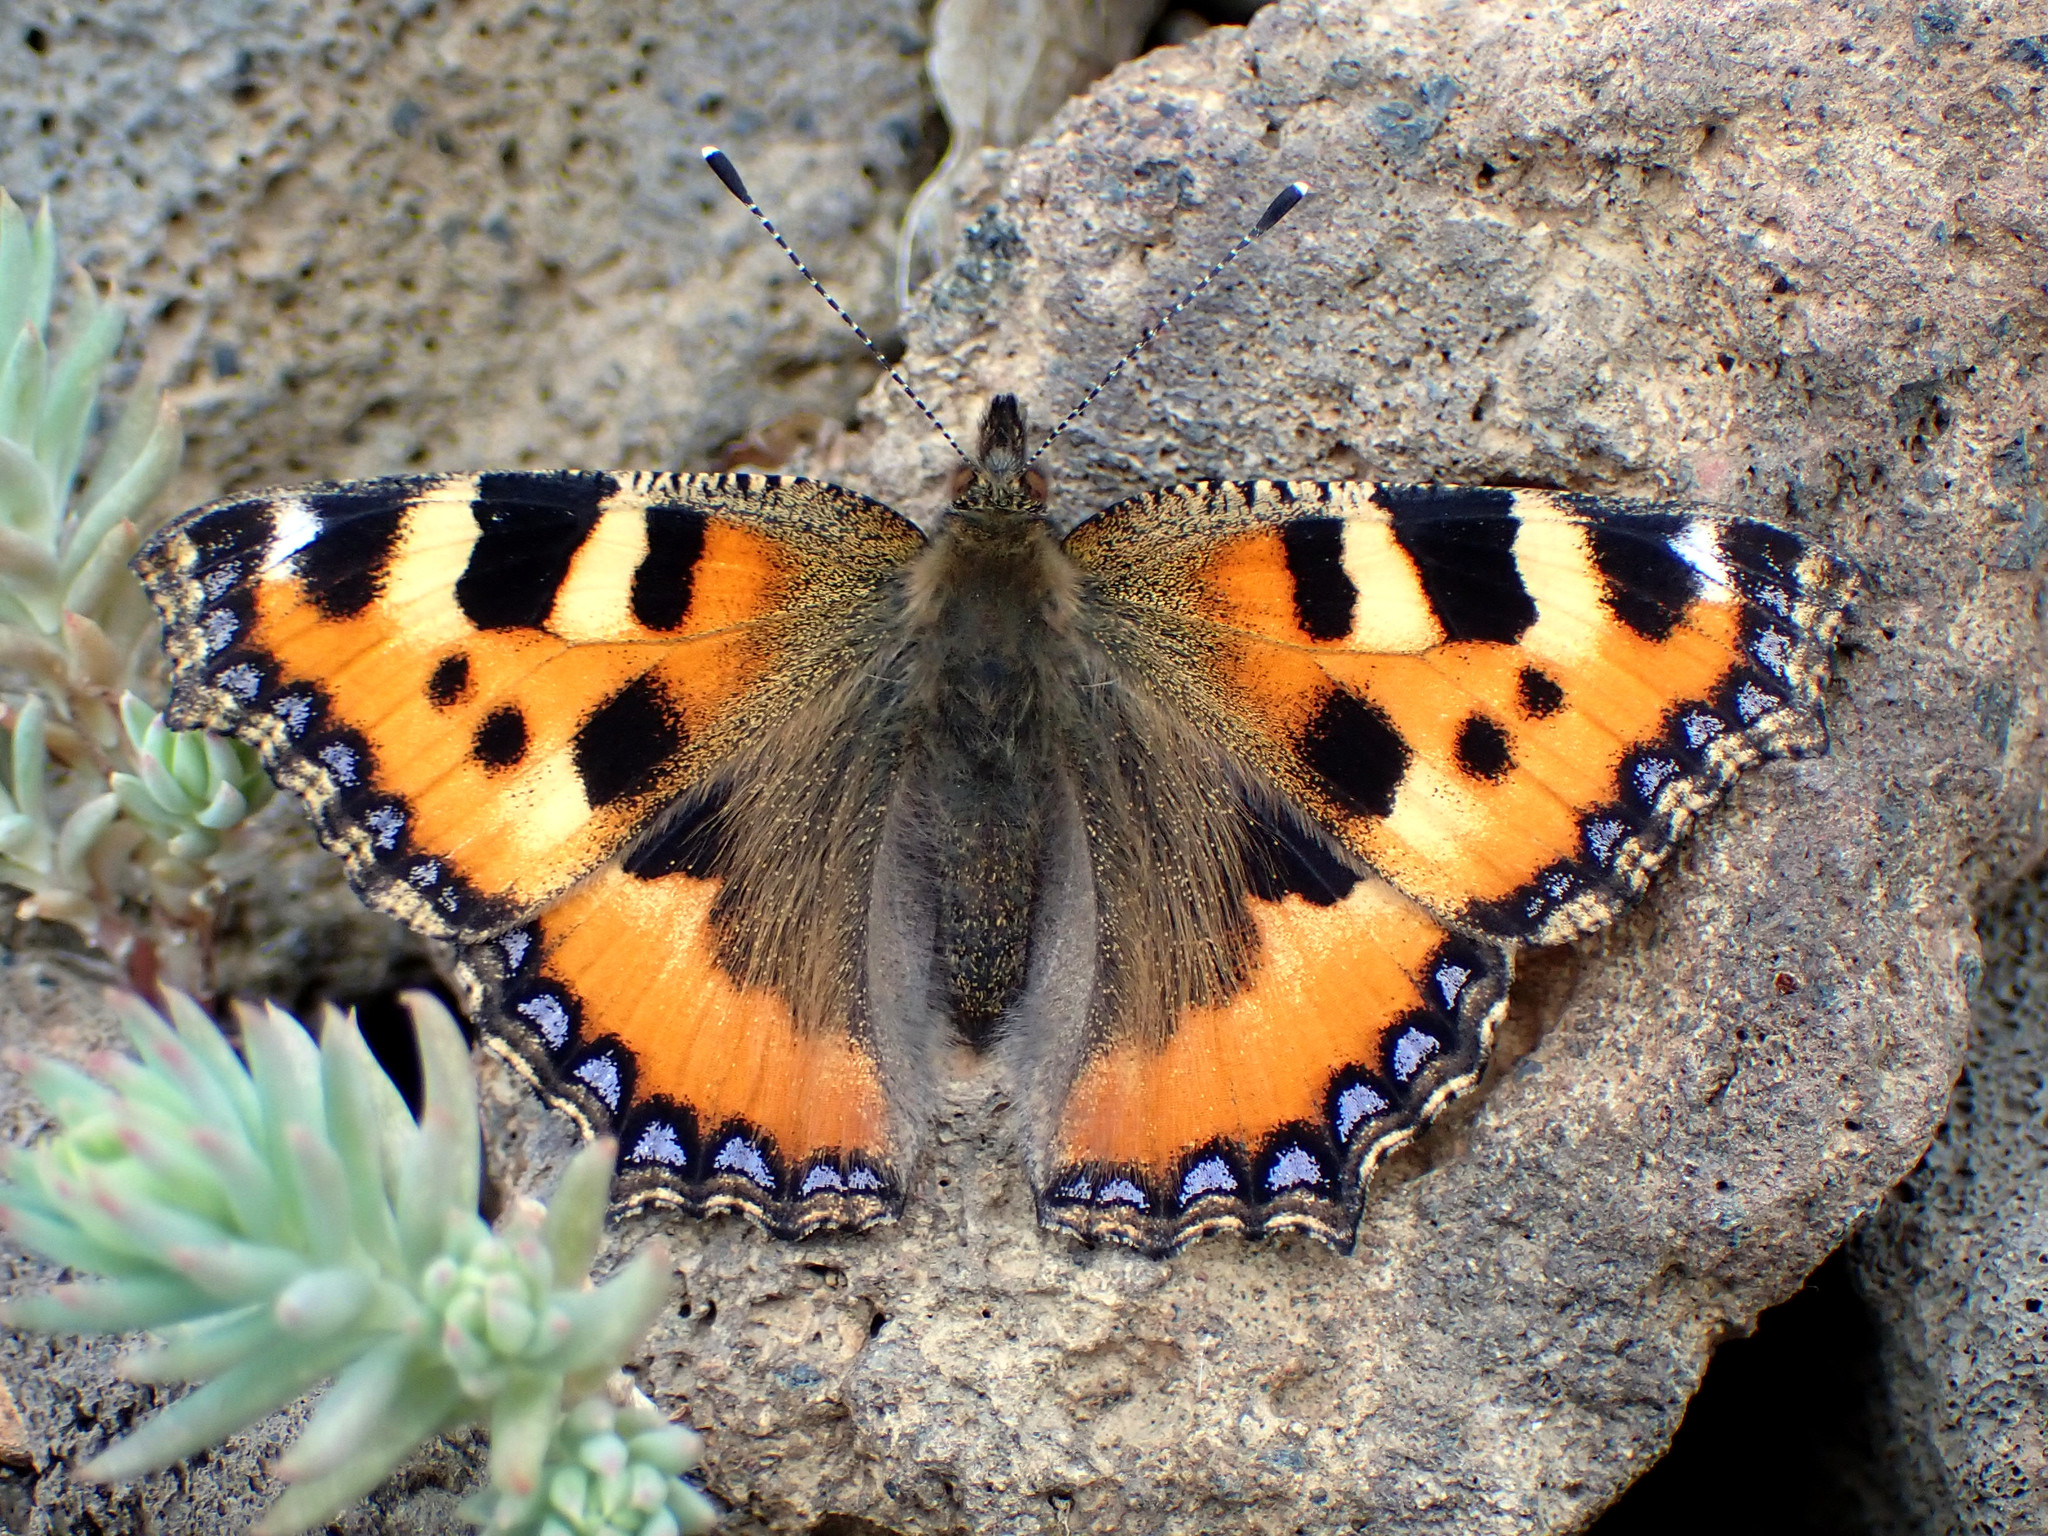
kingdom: Animalia
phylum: Arthropoda
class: Insecta
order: Lepidoptera
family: Nymphalidae
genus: Aglais
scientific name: Aglais urticae
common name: Small tortoiseshell
